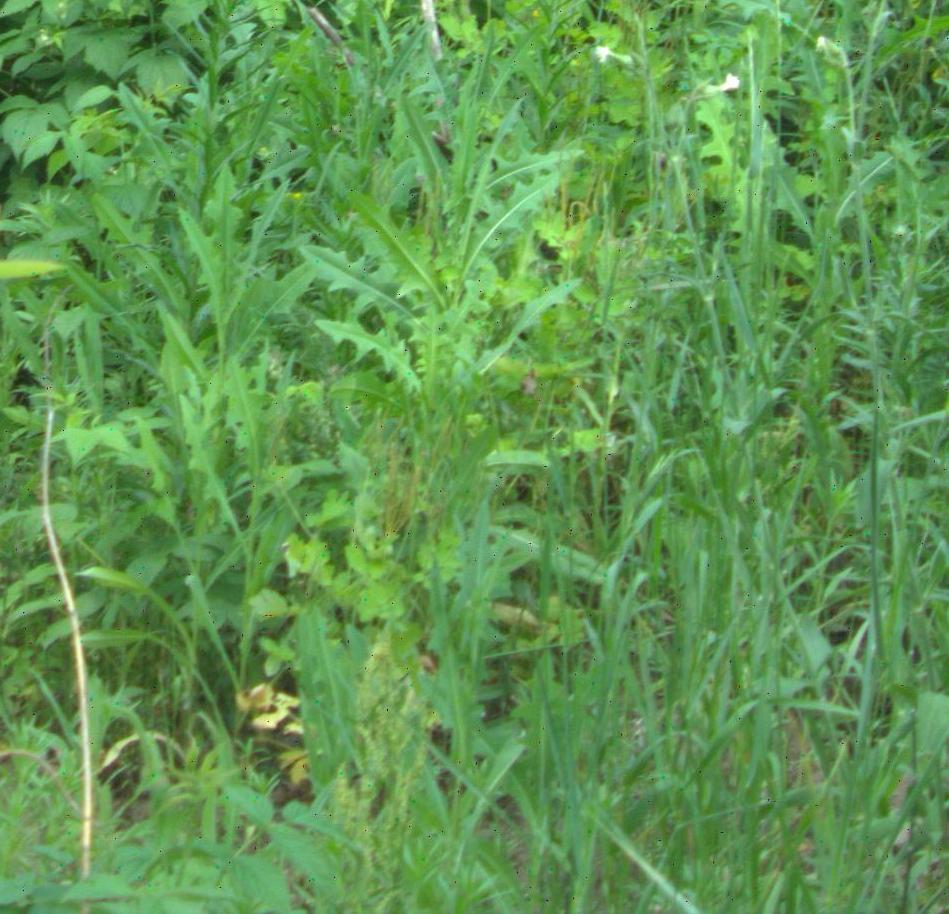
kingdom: Plantae
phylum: Tracheophyta
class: Magnoliopsida
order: Asterales
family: Asteraceae
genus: Lactuca
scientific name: Lactuca serriola
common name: Prickly lettuce
